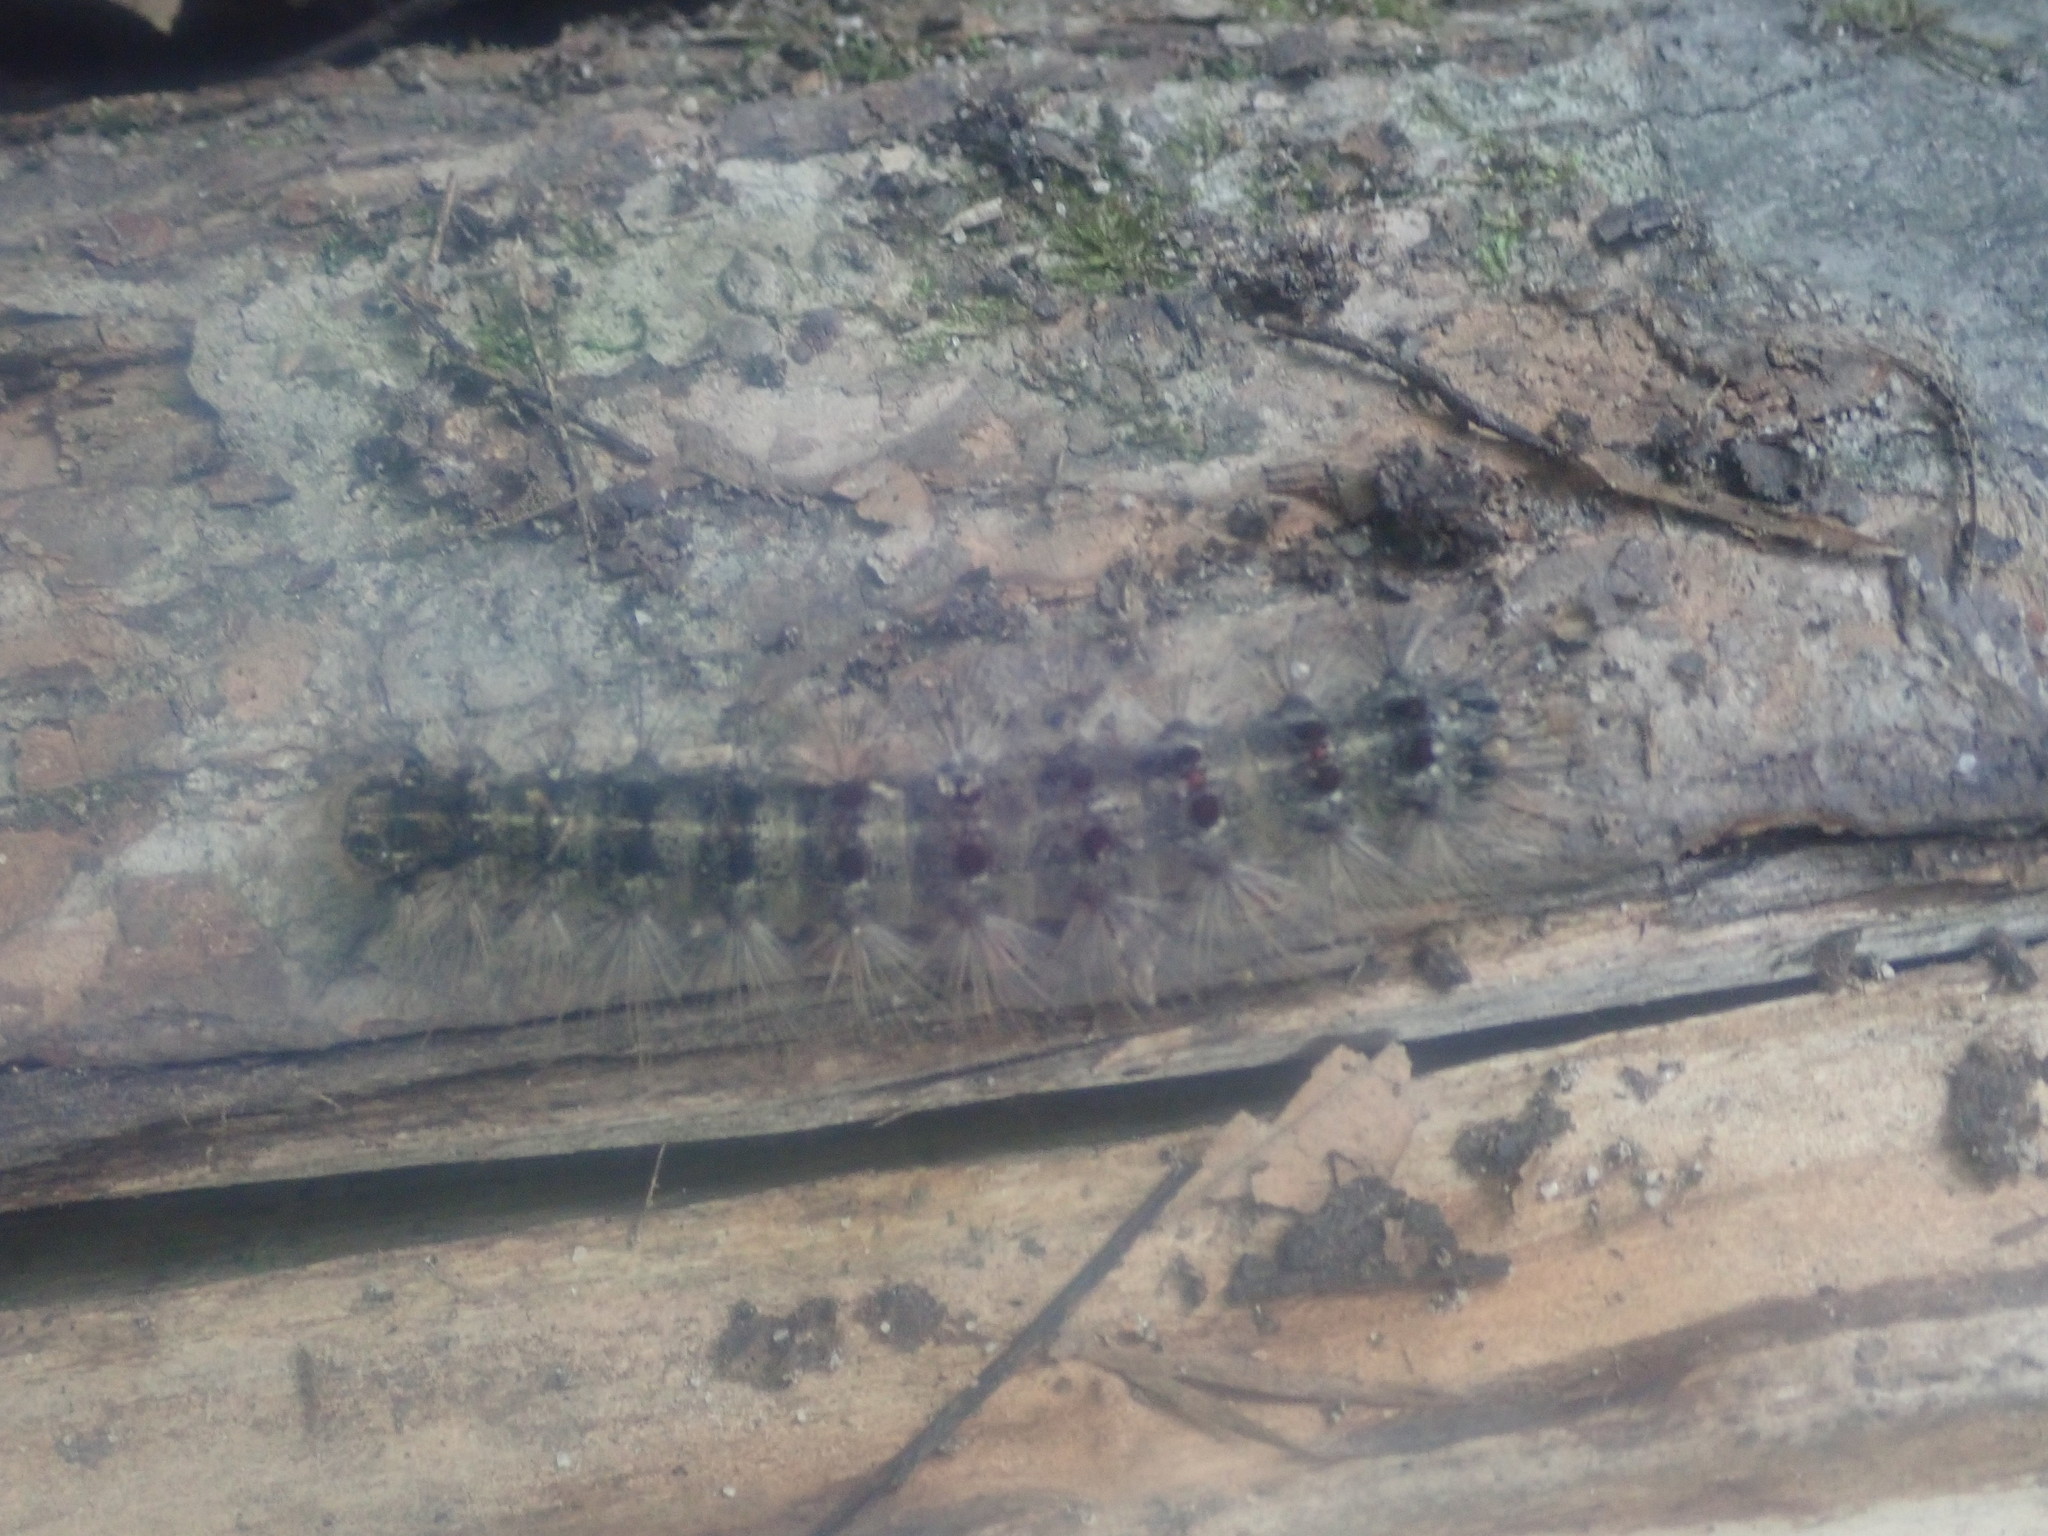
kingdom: Animalia
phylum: Arthropoda
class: Insecta
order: Lepidoptera
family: Erebidae
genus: Lymantria
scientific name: Lymantria dispar
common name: Gypsy moth
